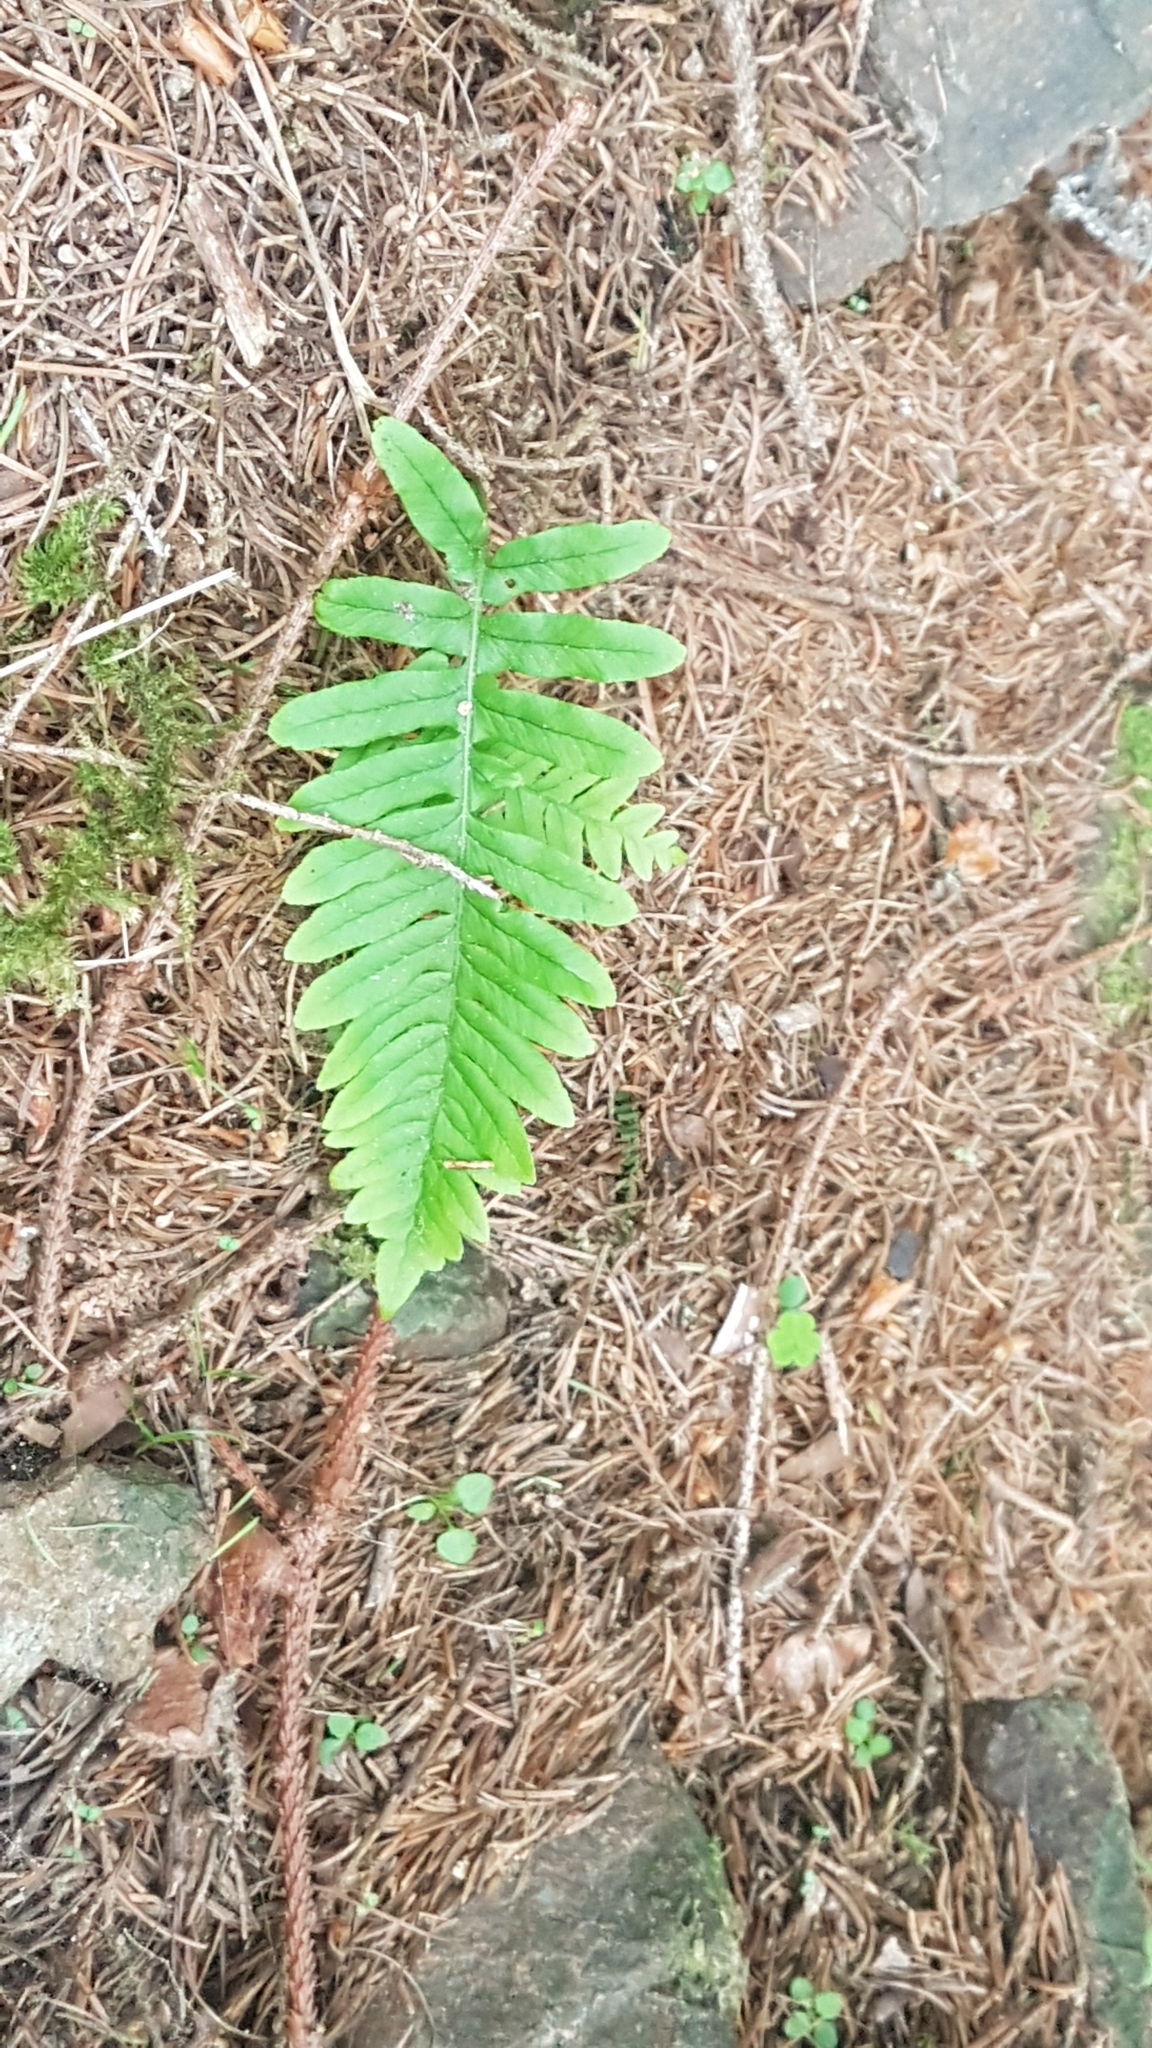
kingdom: Plantae
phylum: Tracheophyta
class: Polypodiopsida
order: Polypodiales
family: Polypodiaceae
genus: Polypodium
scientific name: Polypodium vulgare
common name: Common polypody
